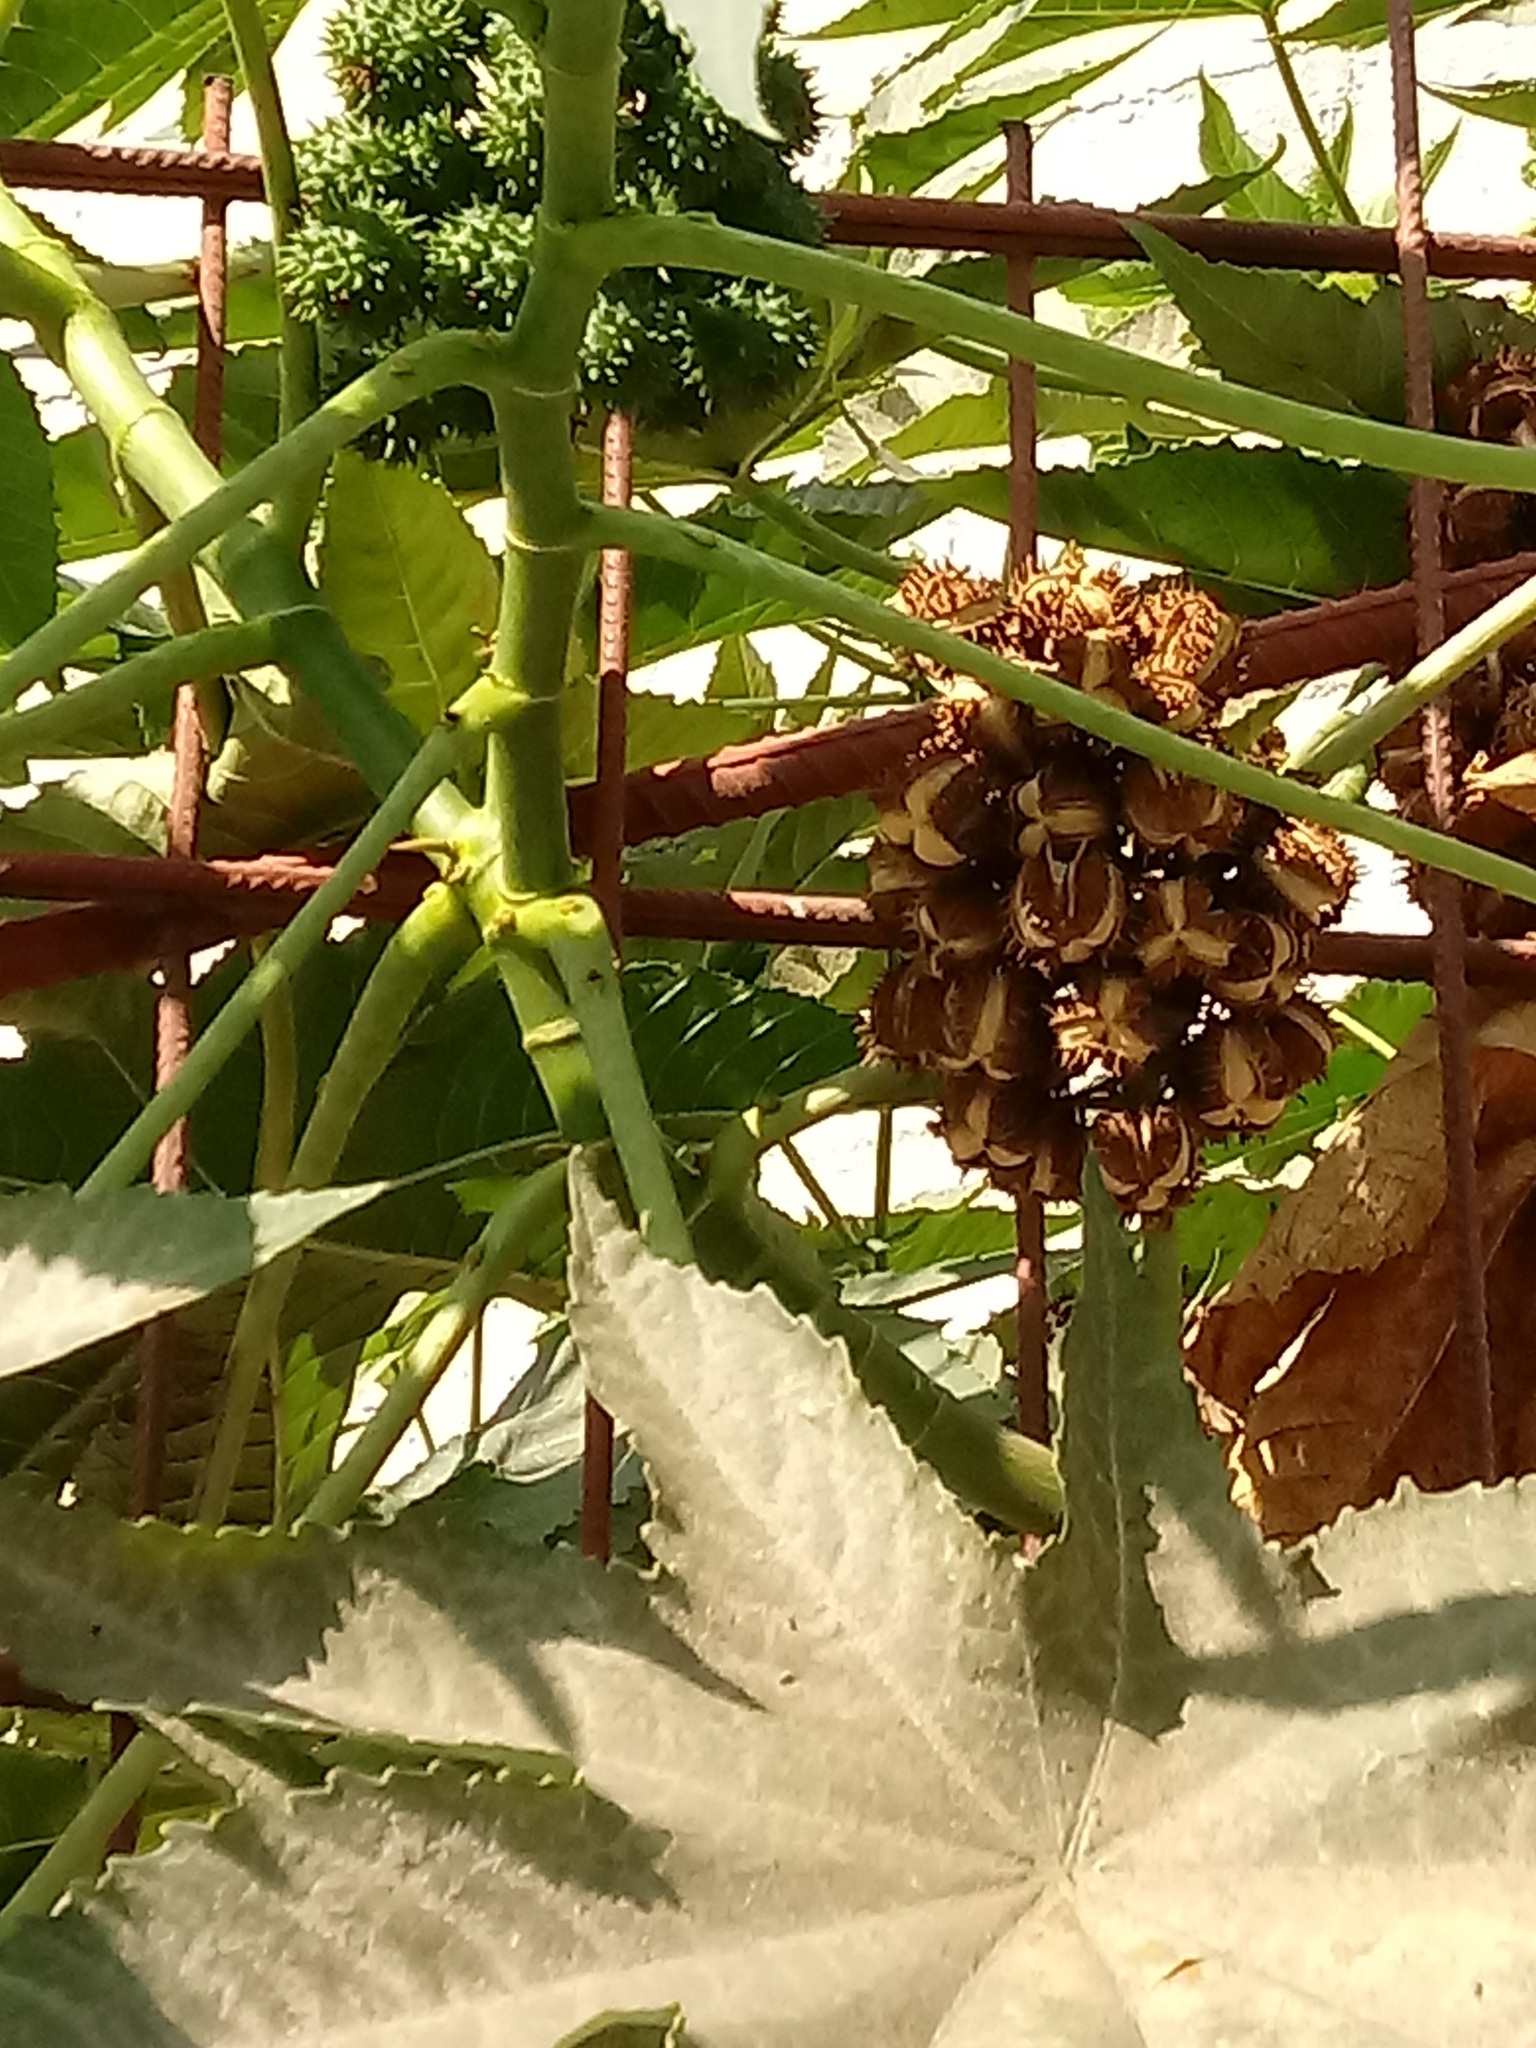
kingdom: Plantae
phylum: Tracheophyta
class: Magnoliopsida
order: Malpighiales
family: Euphorbiaceae
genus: Ricinus
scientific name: Ricinus communis
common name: Castor-oil-plant
